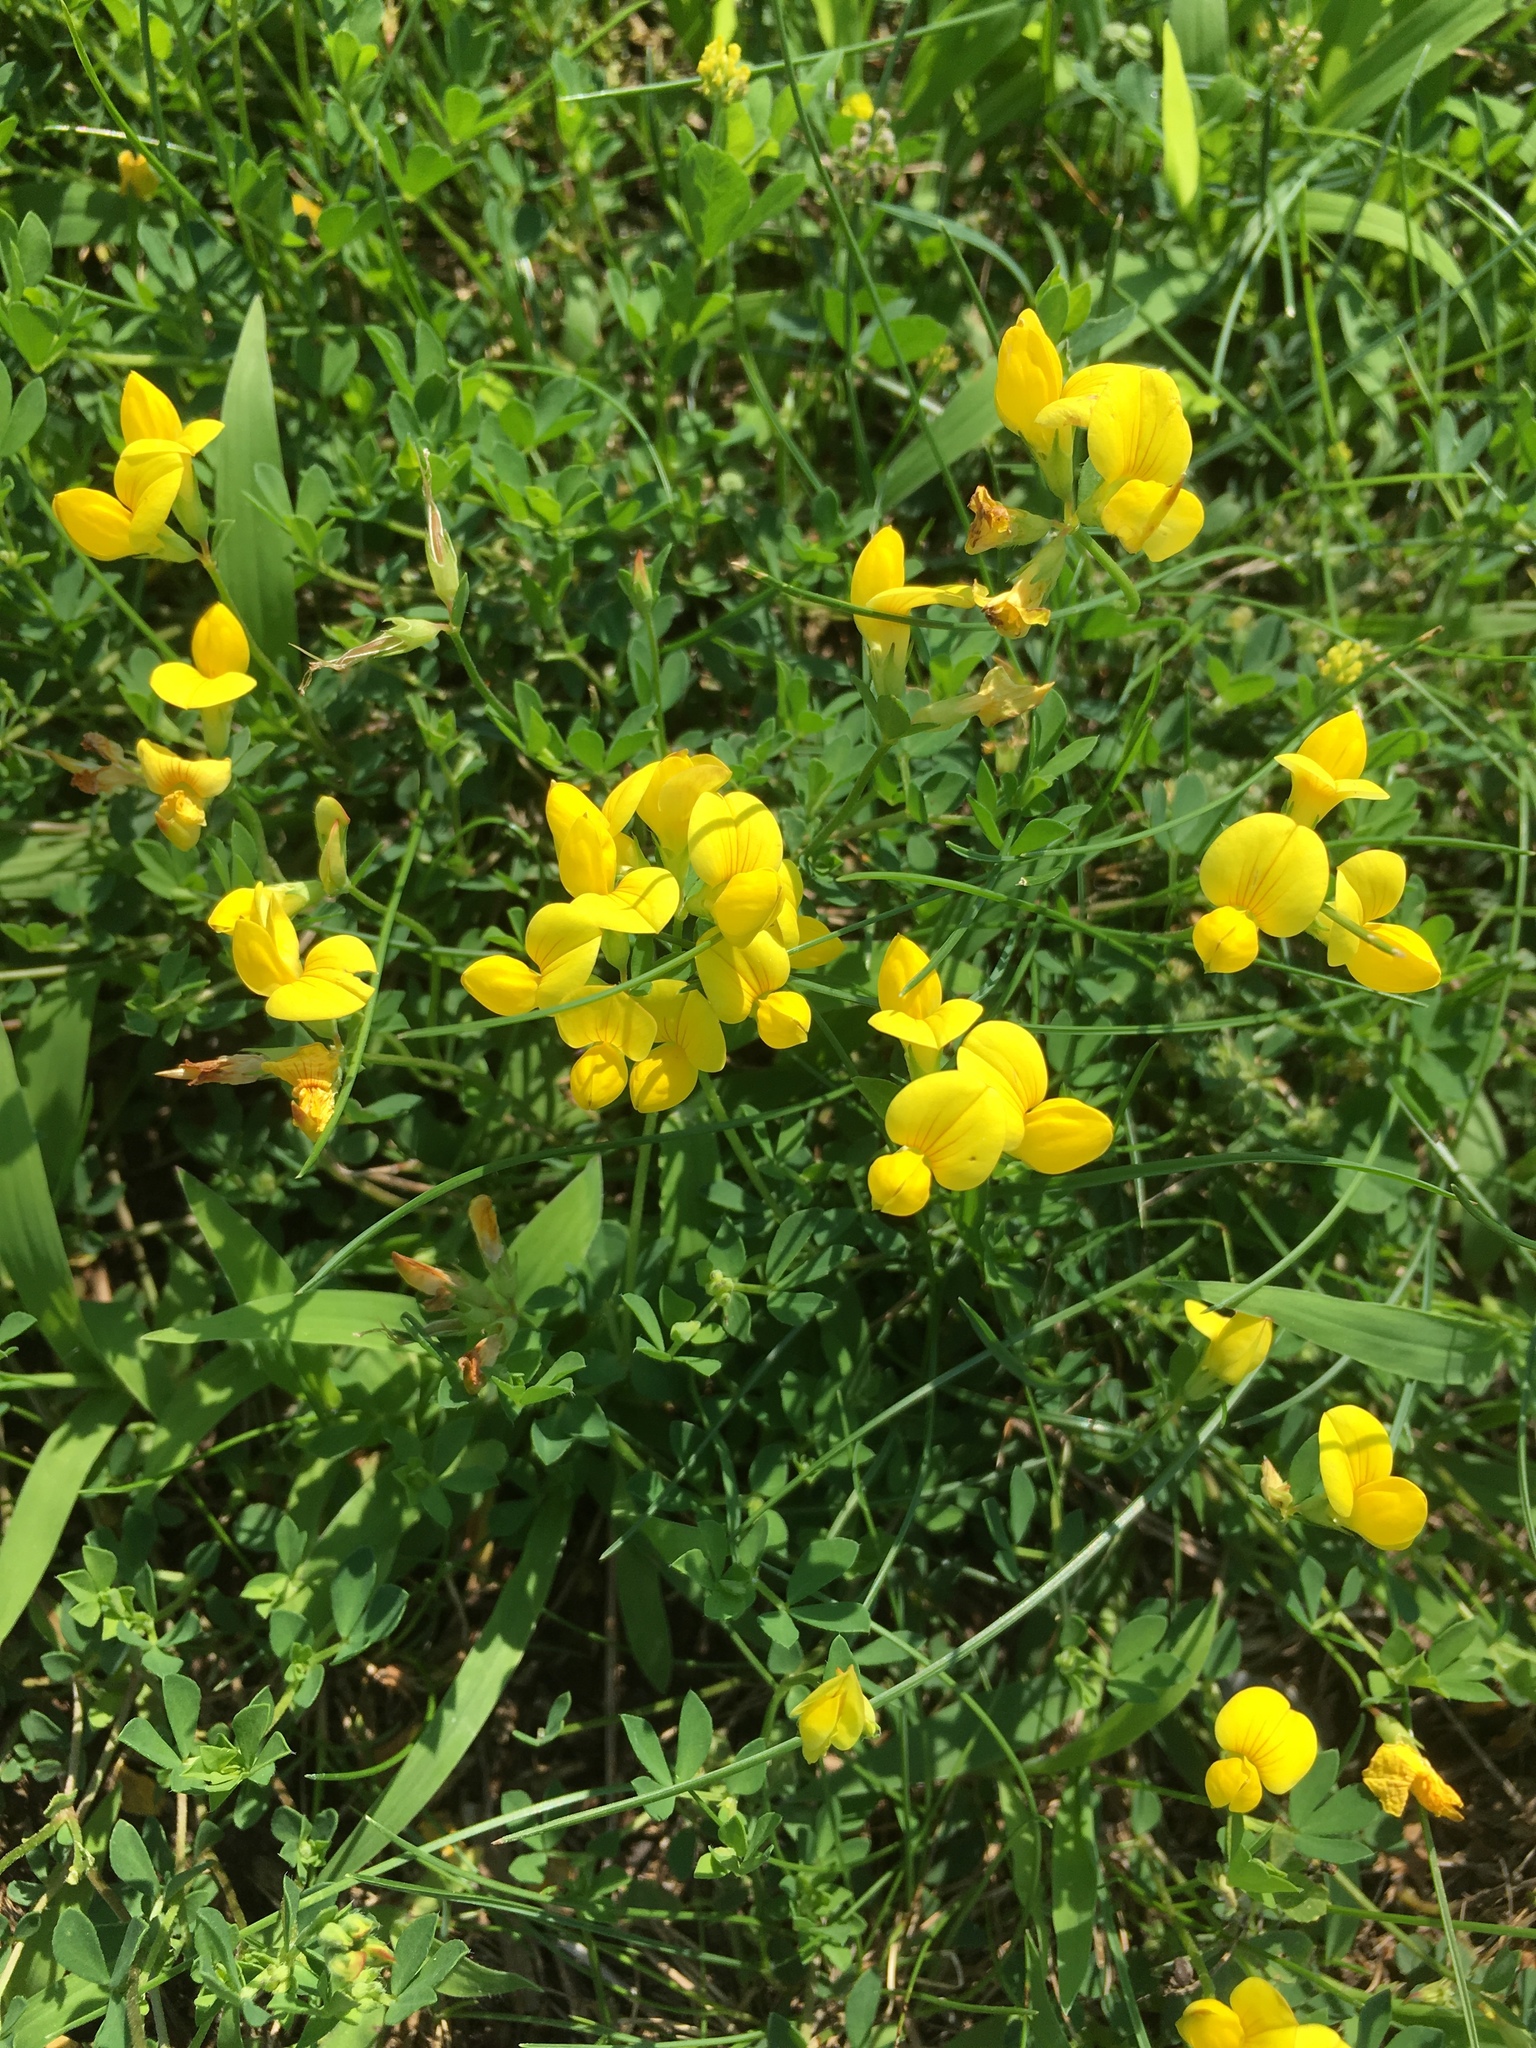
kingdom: Plantae
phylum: Tracheophyta
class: Magnoliopsida
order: Fabales
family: Fabaceae
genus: Lotus
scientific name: Lotus corniculatus
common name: Common bird's-foot-trefoil
